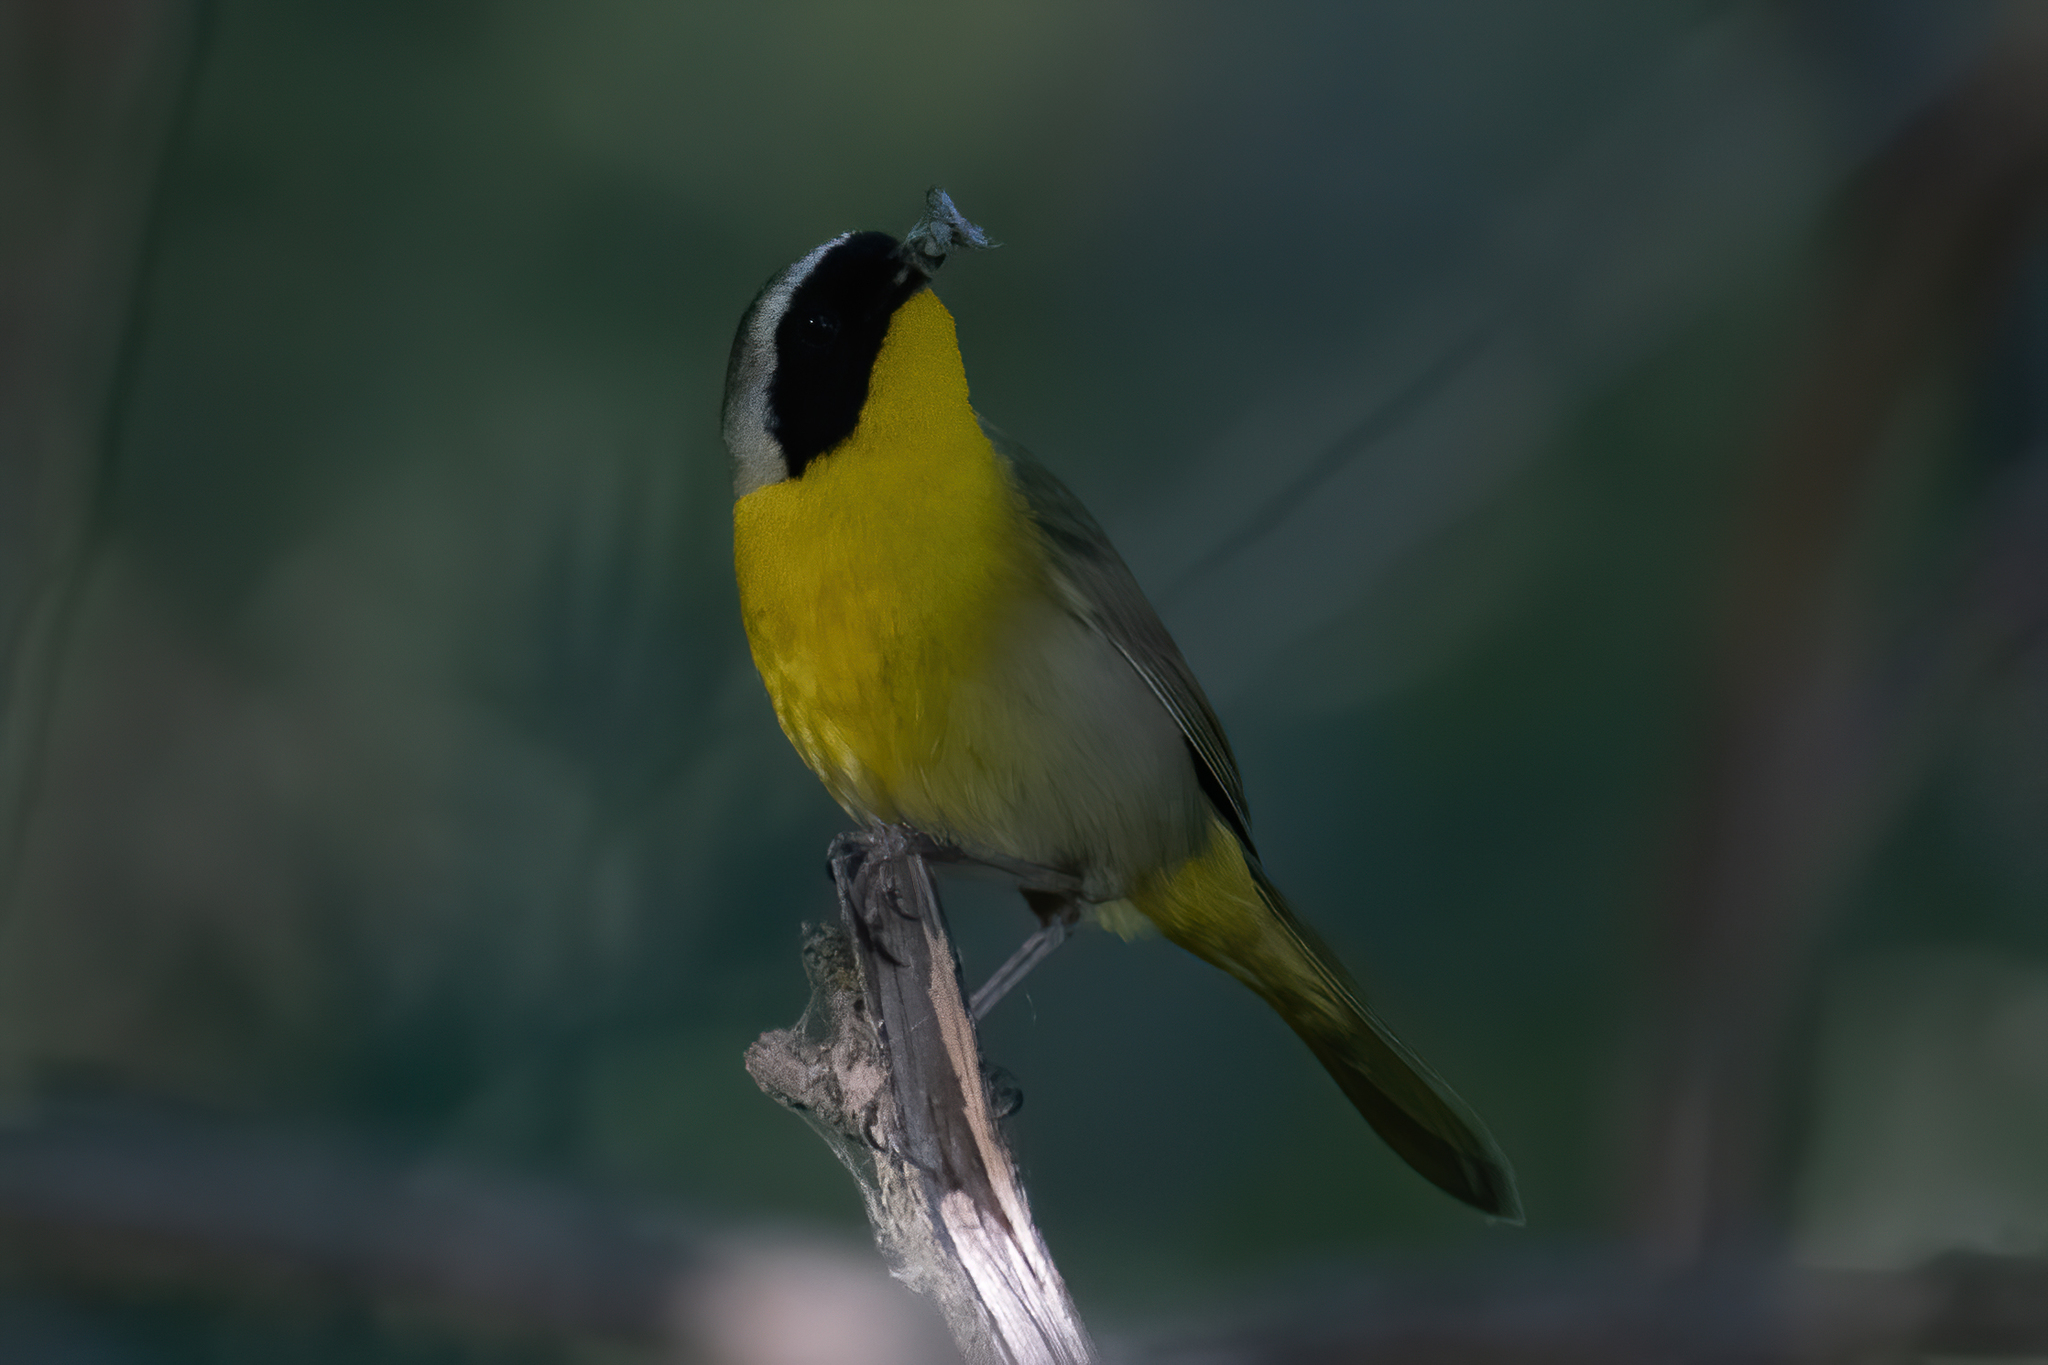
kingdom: Animalia
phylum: Chordata
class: Aves
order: Passeriformes
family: Parulidae
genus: Geothlypis
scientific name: Geothlypis trichas
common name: Common yellowthroat
